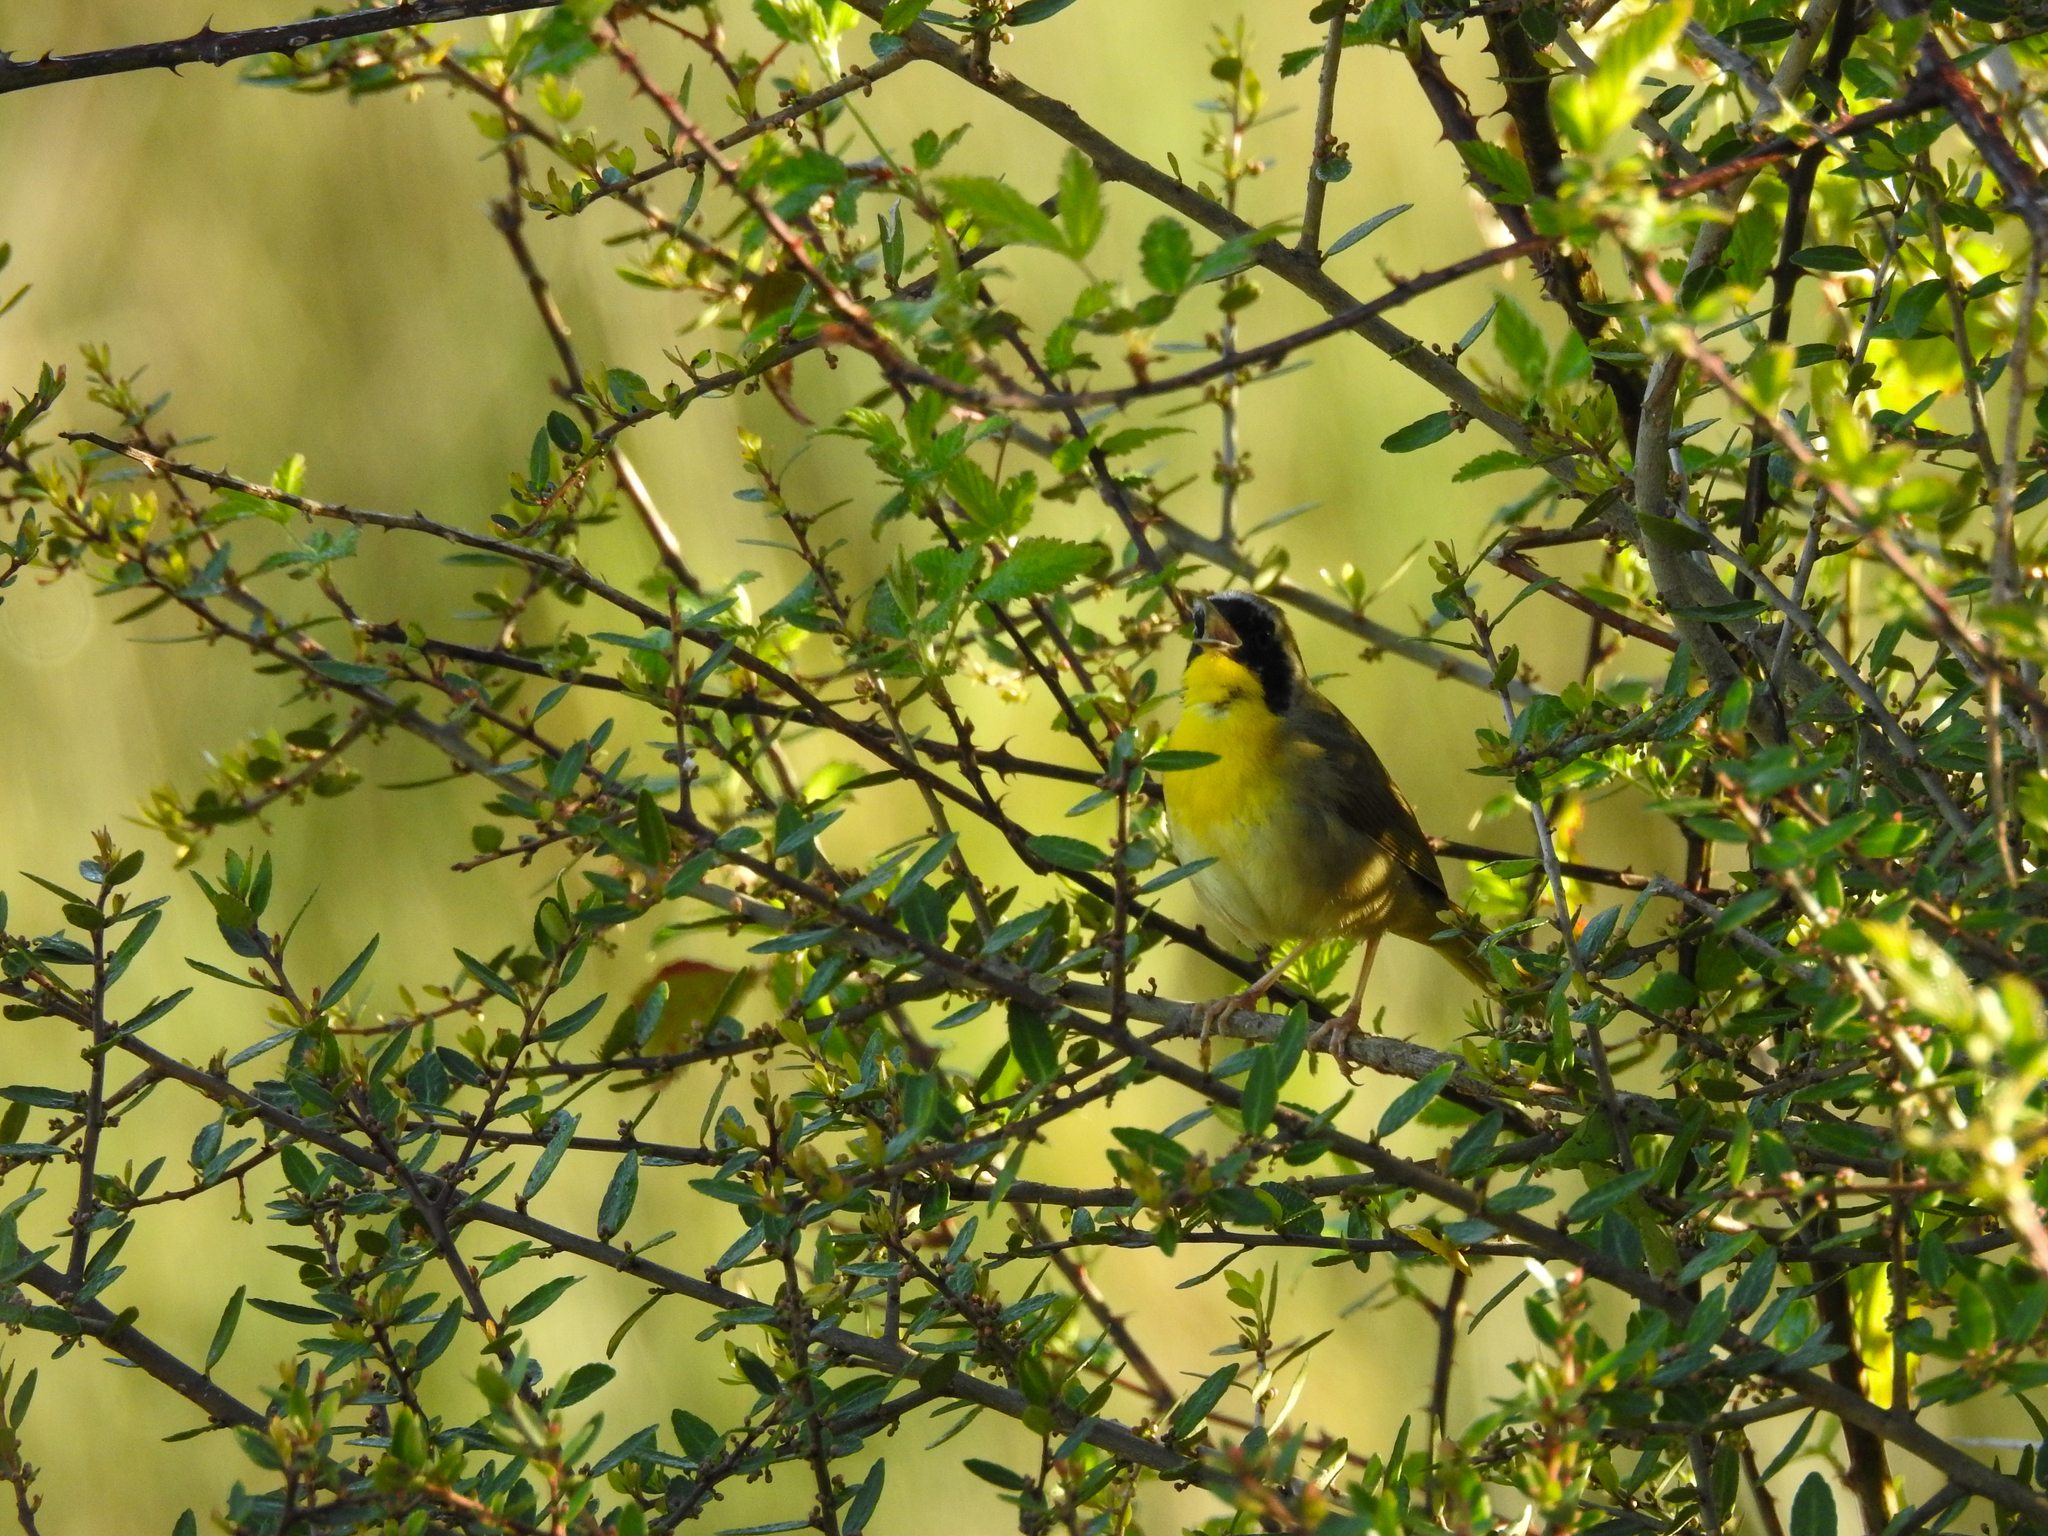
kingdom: Animalia
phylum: Chordata
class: Aves
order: Passeriformes
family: Parulidae
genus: Geothlypis
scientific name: Geothlypis trichas
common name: Common yellowthroat
